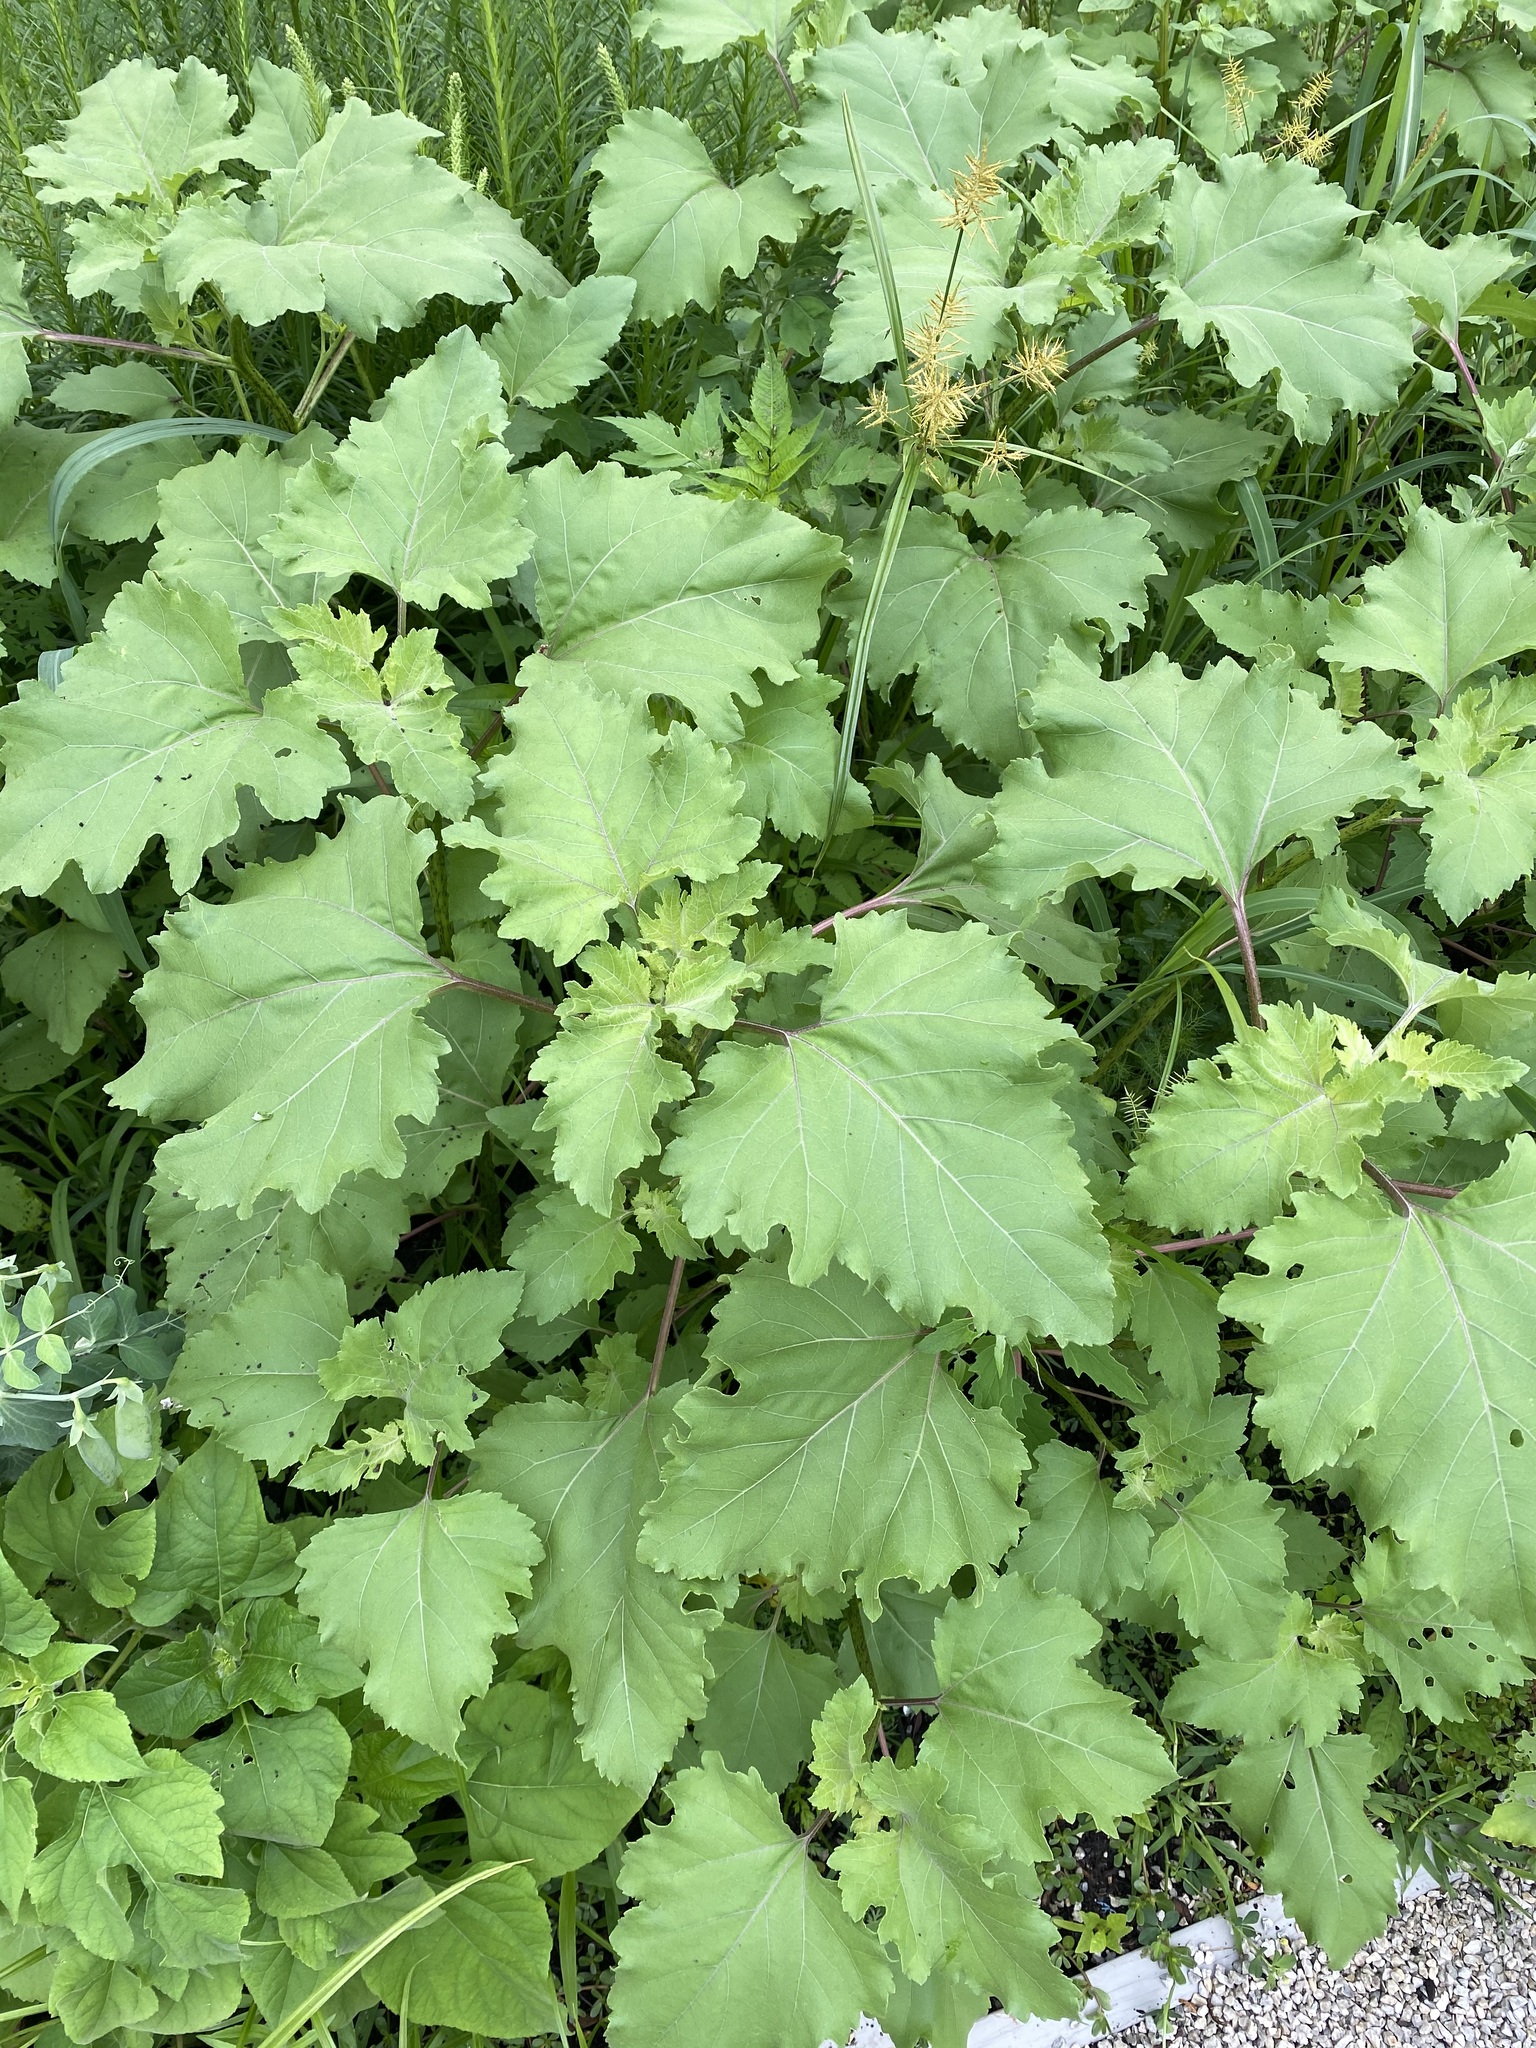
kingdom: Plantae
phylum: Tracheophyta
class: Magnoliopsida
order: Asterales
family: Asteraceae
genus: Xanthium
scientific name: Xanthium orientale
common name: Californian burr
